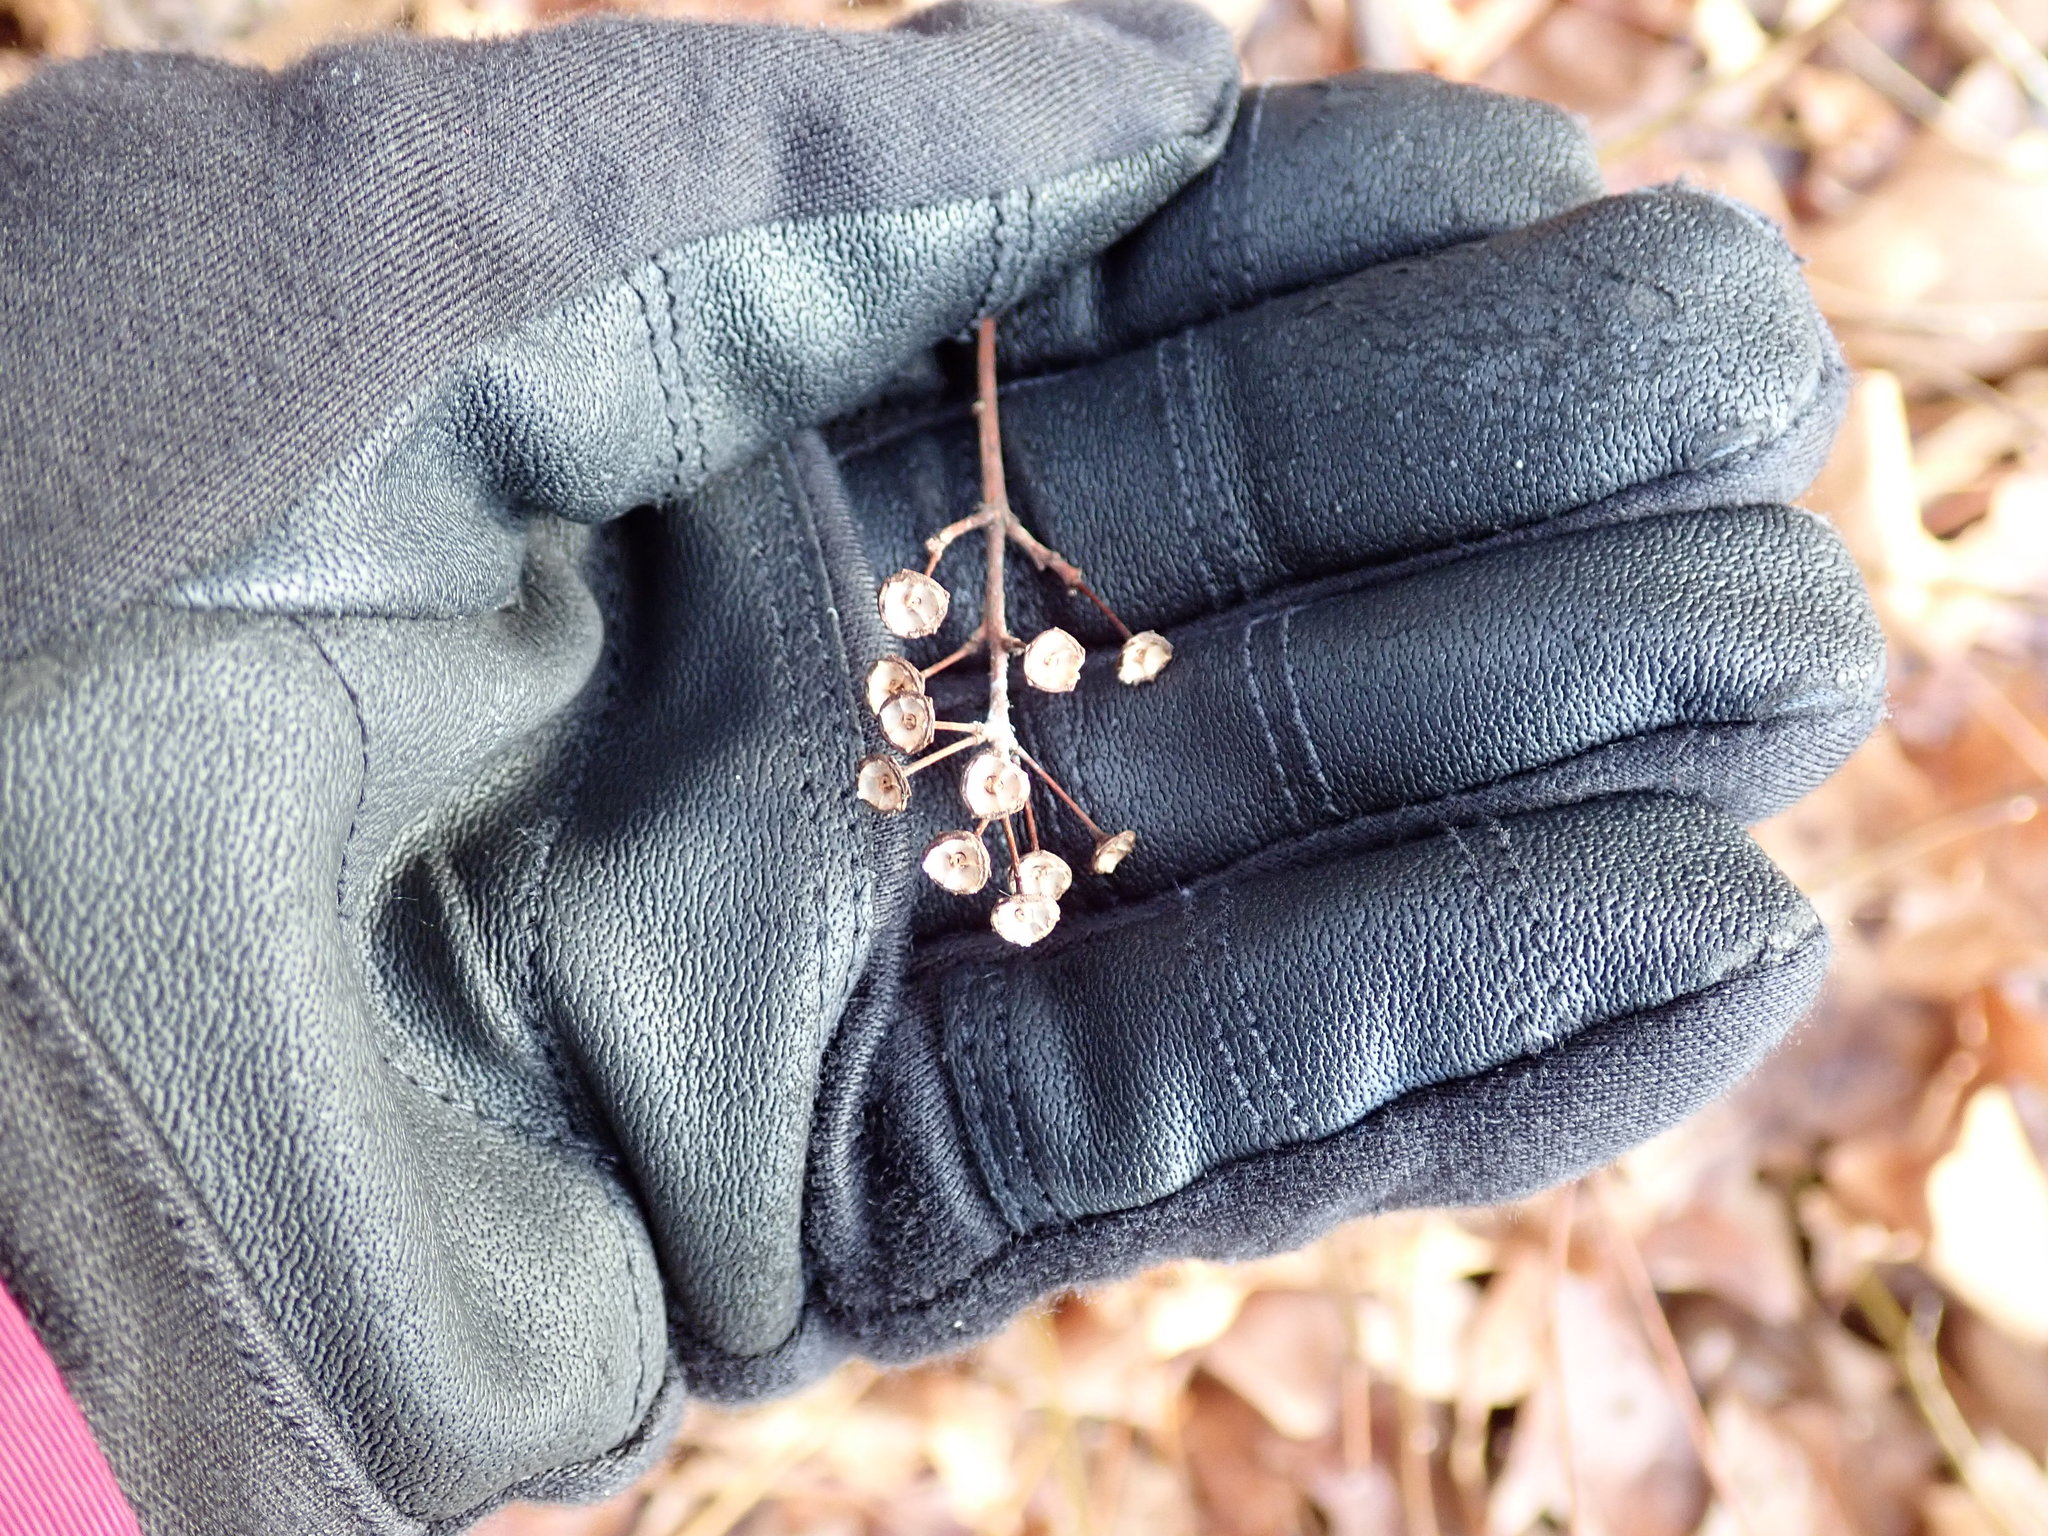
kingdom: Plantae
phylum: Tracheophyta
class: Magnoliopsida
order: Rosales
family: Rhamnaceae
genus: Ceanothus
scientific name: Ceanothus americanus
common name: Redroot
